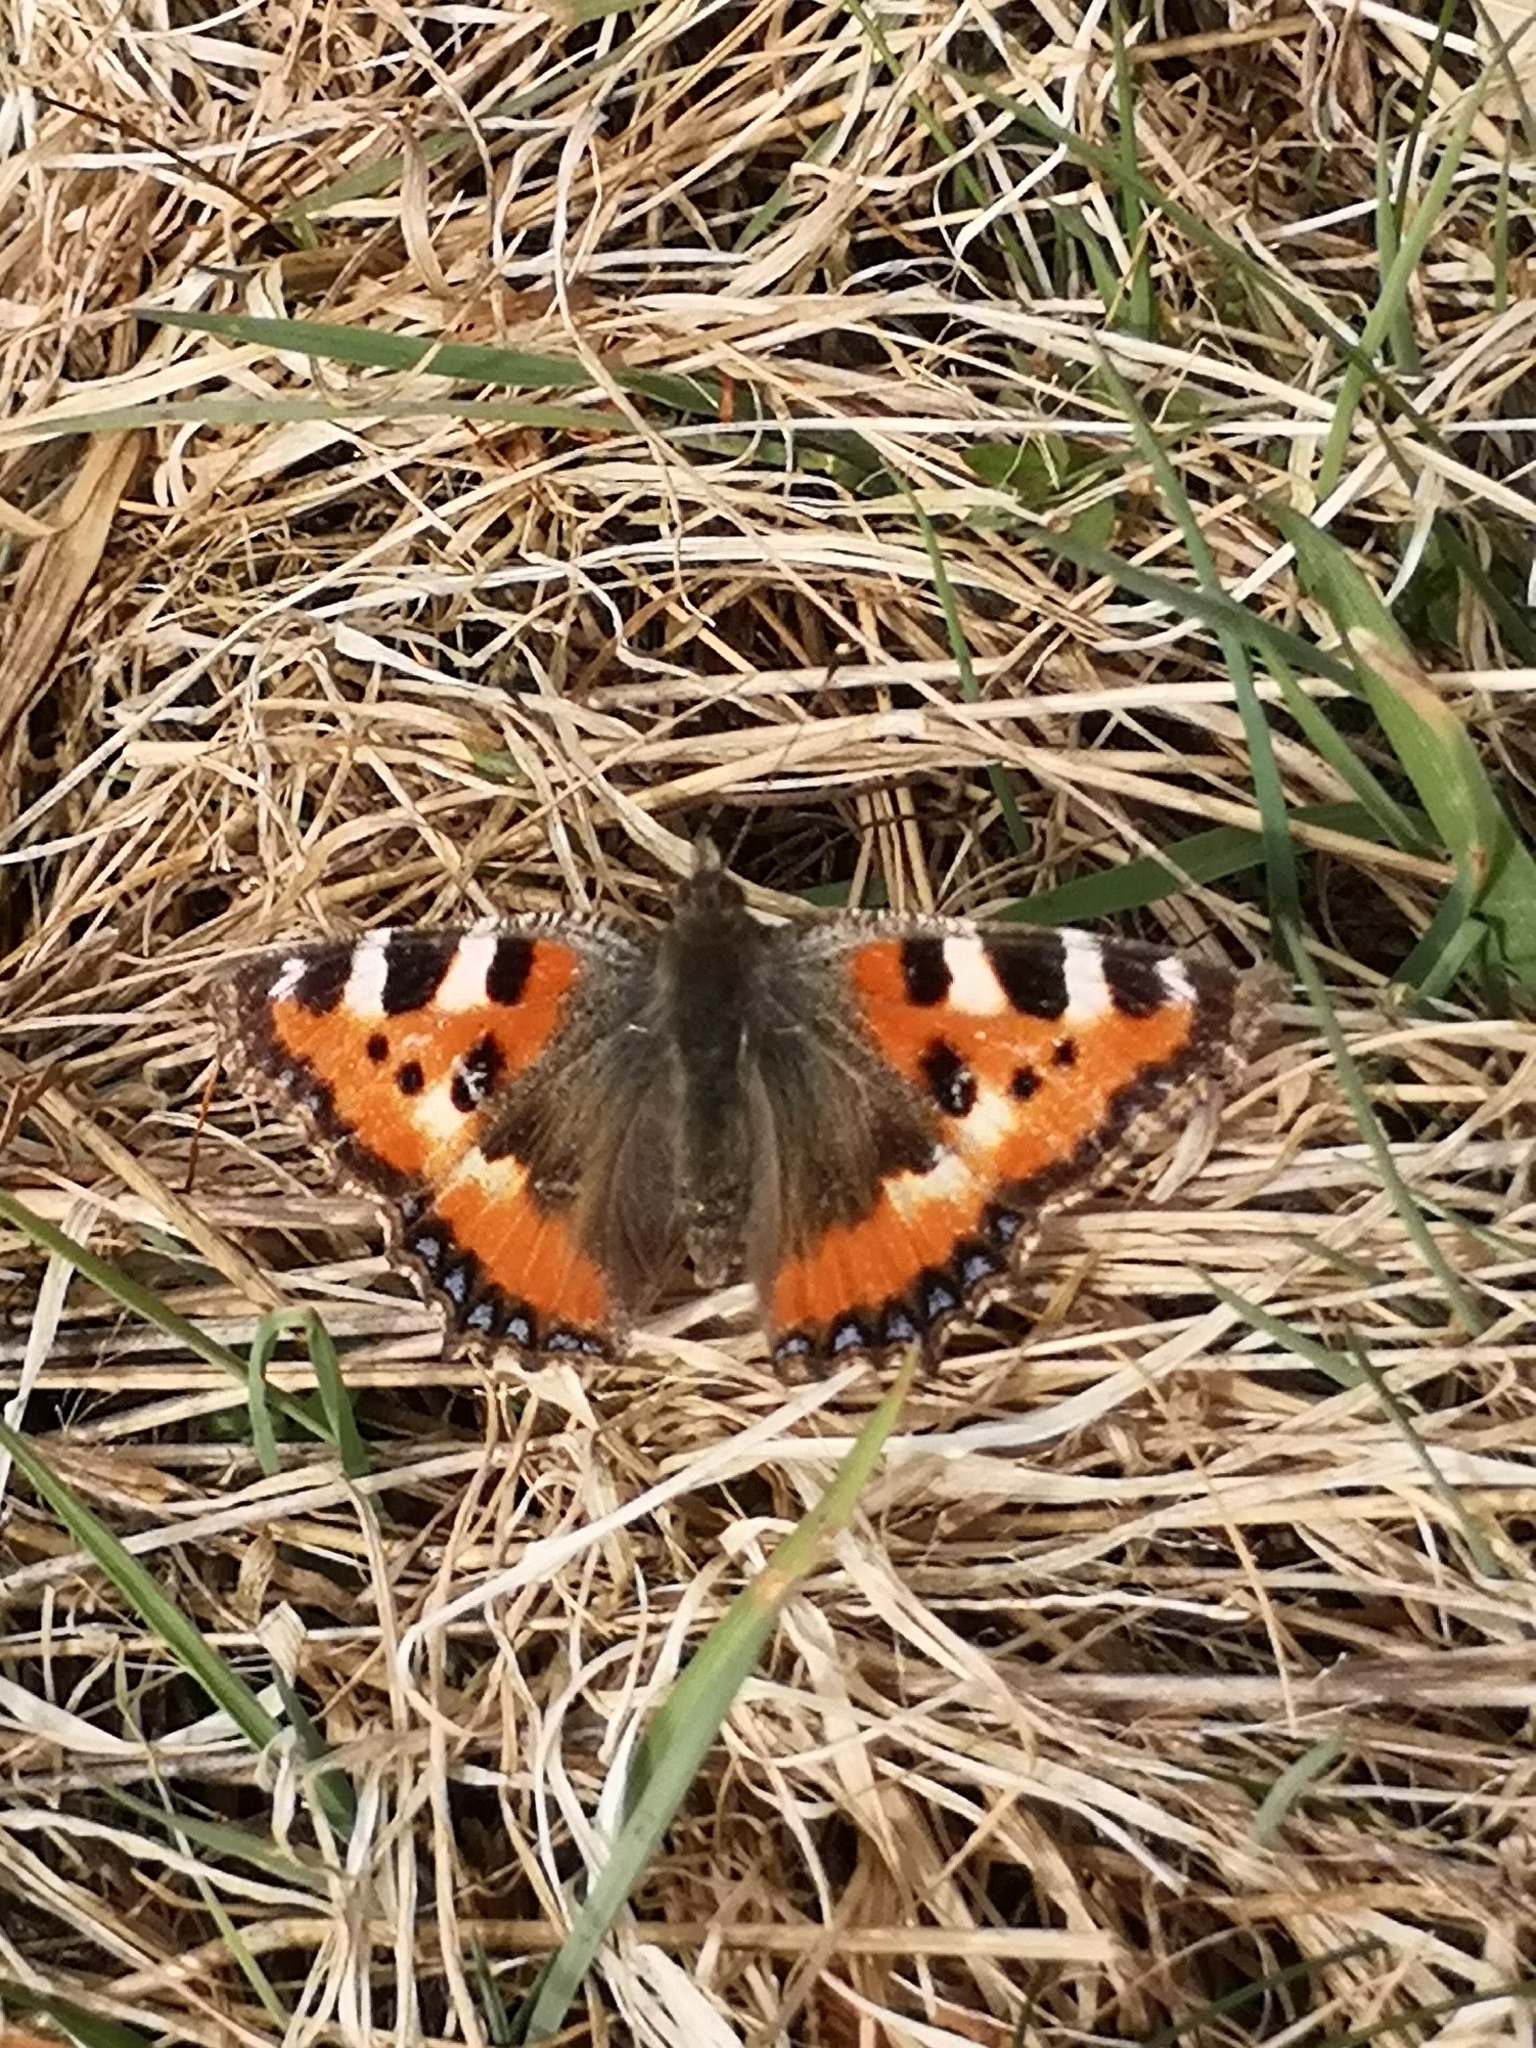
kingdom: Animalia
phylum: Arthropoda
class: Insecta
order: Lepidoptera
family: Nymphalidae
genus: Aglais
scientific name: Aglais urticae
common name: Small tortoiseshell
